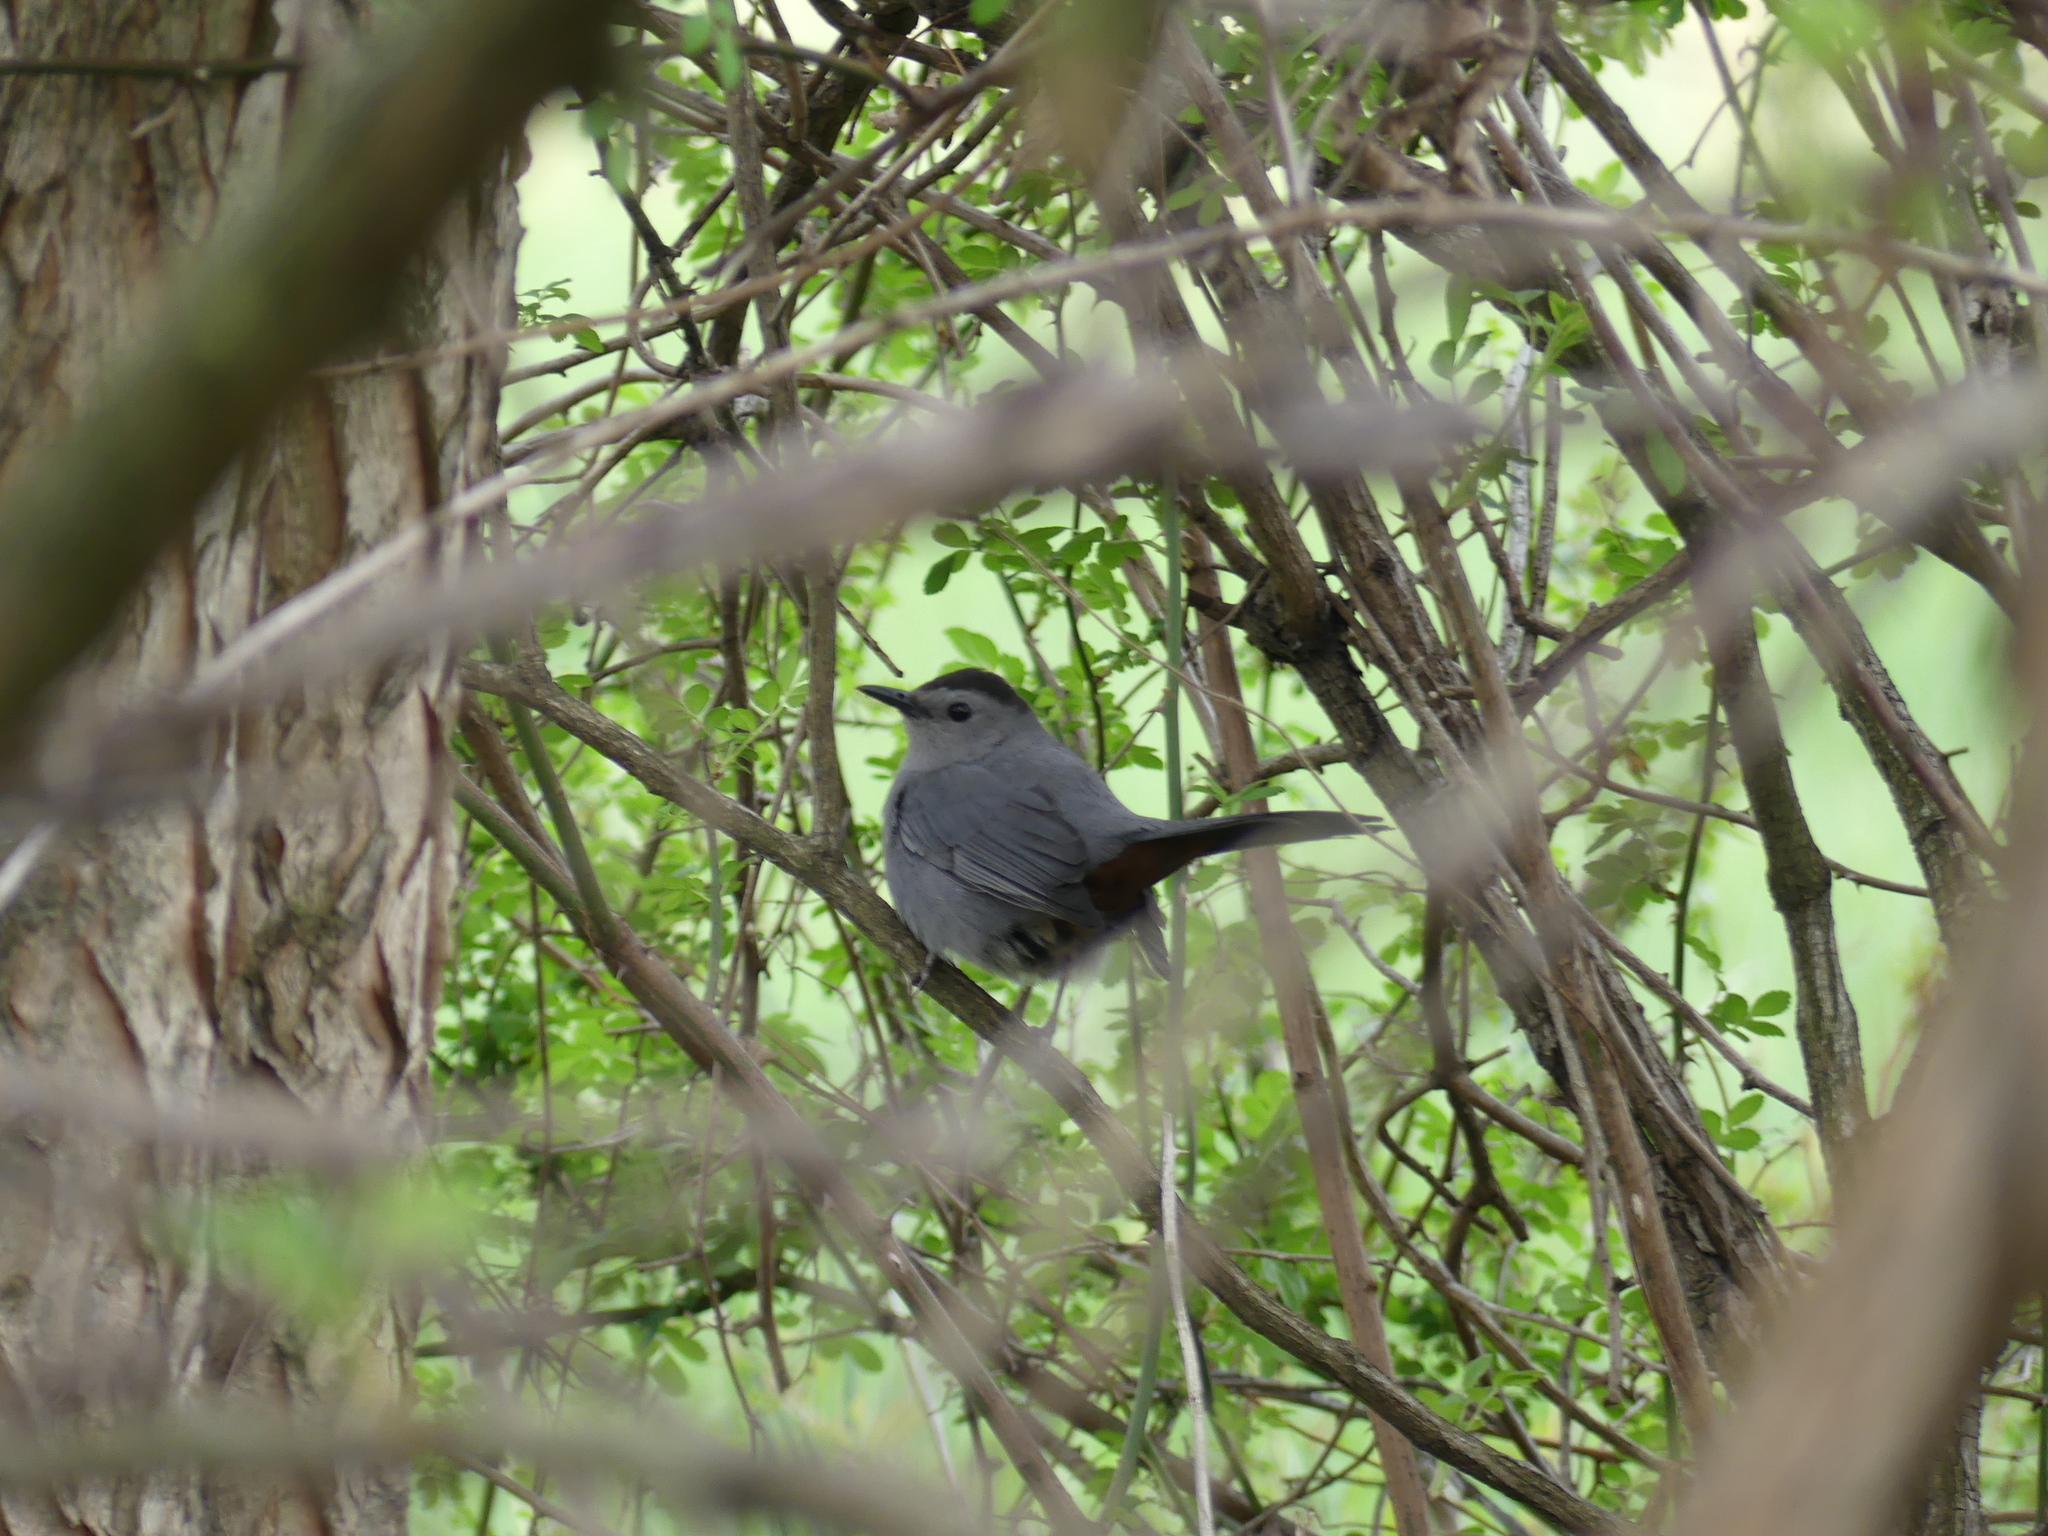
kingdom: Animalia
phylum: Chordata
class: Aves
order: Passeriformes
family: Mimidae
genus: Dumetella
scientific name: Dumetella carolinensis
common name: Gray catbird
